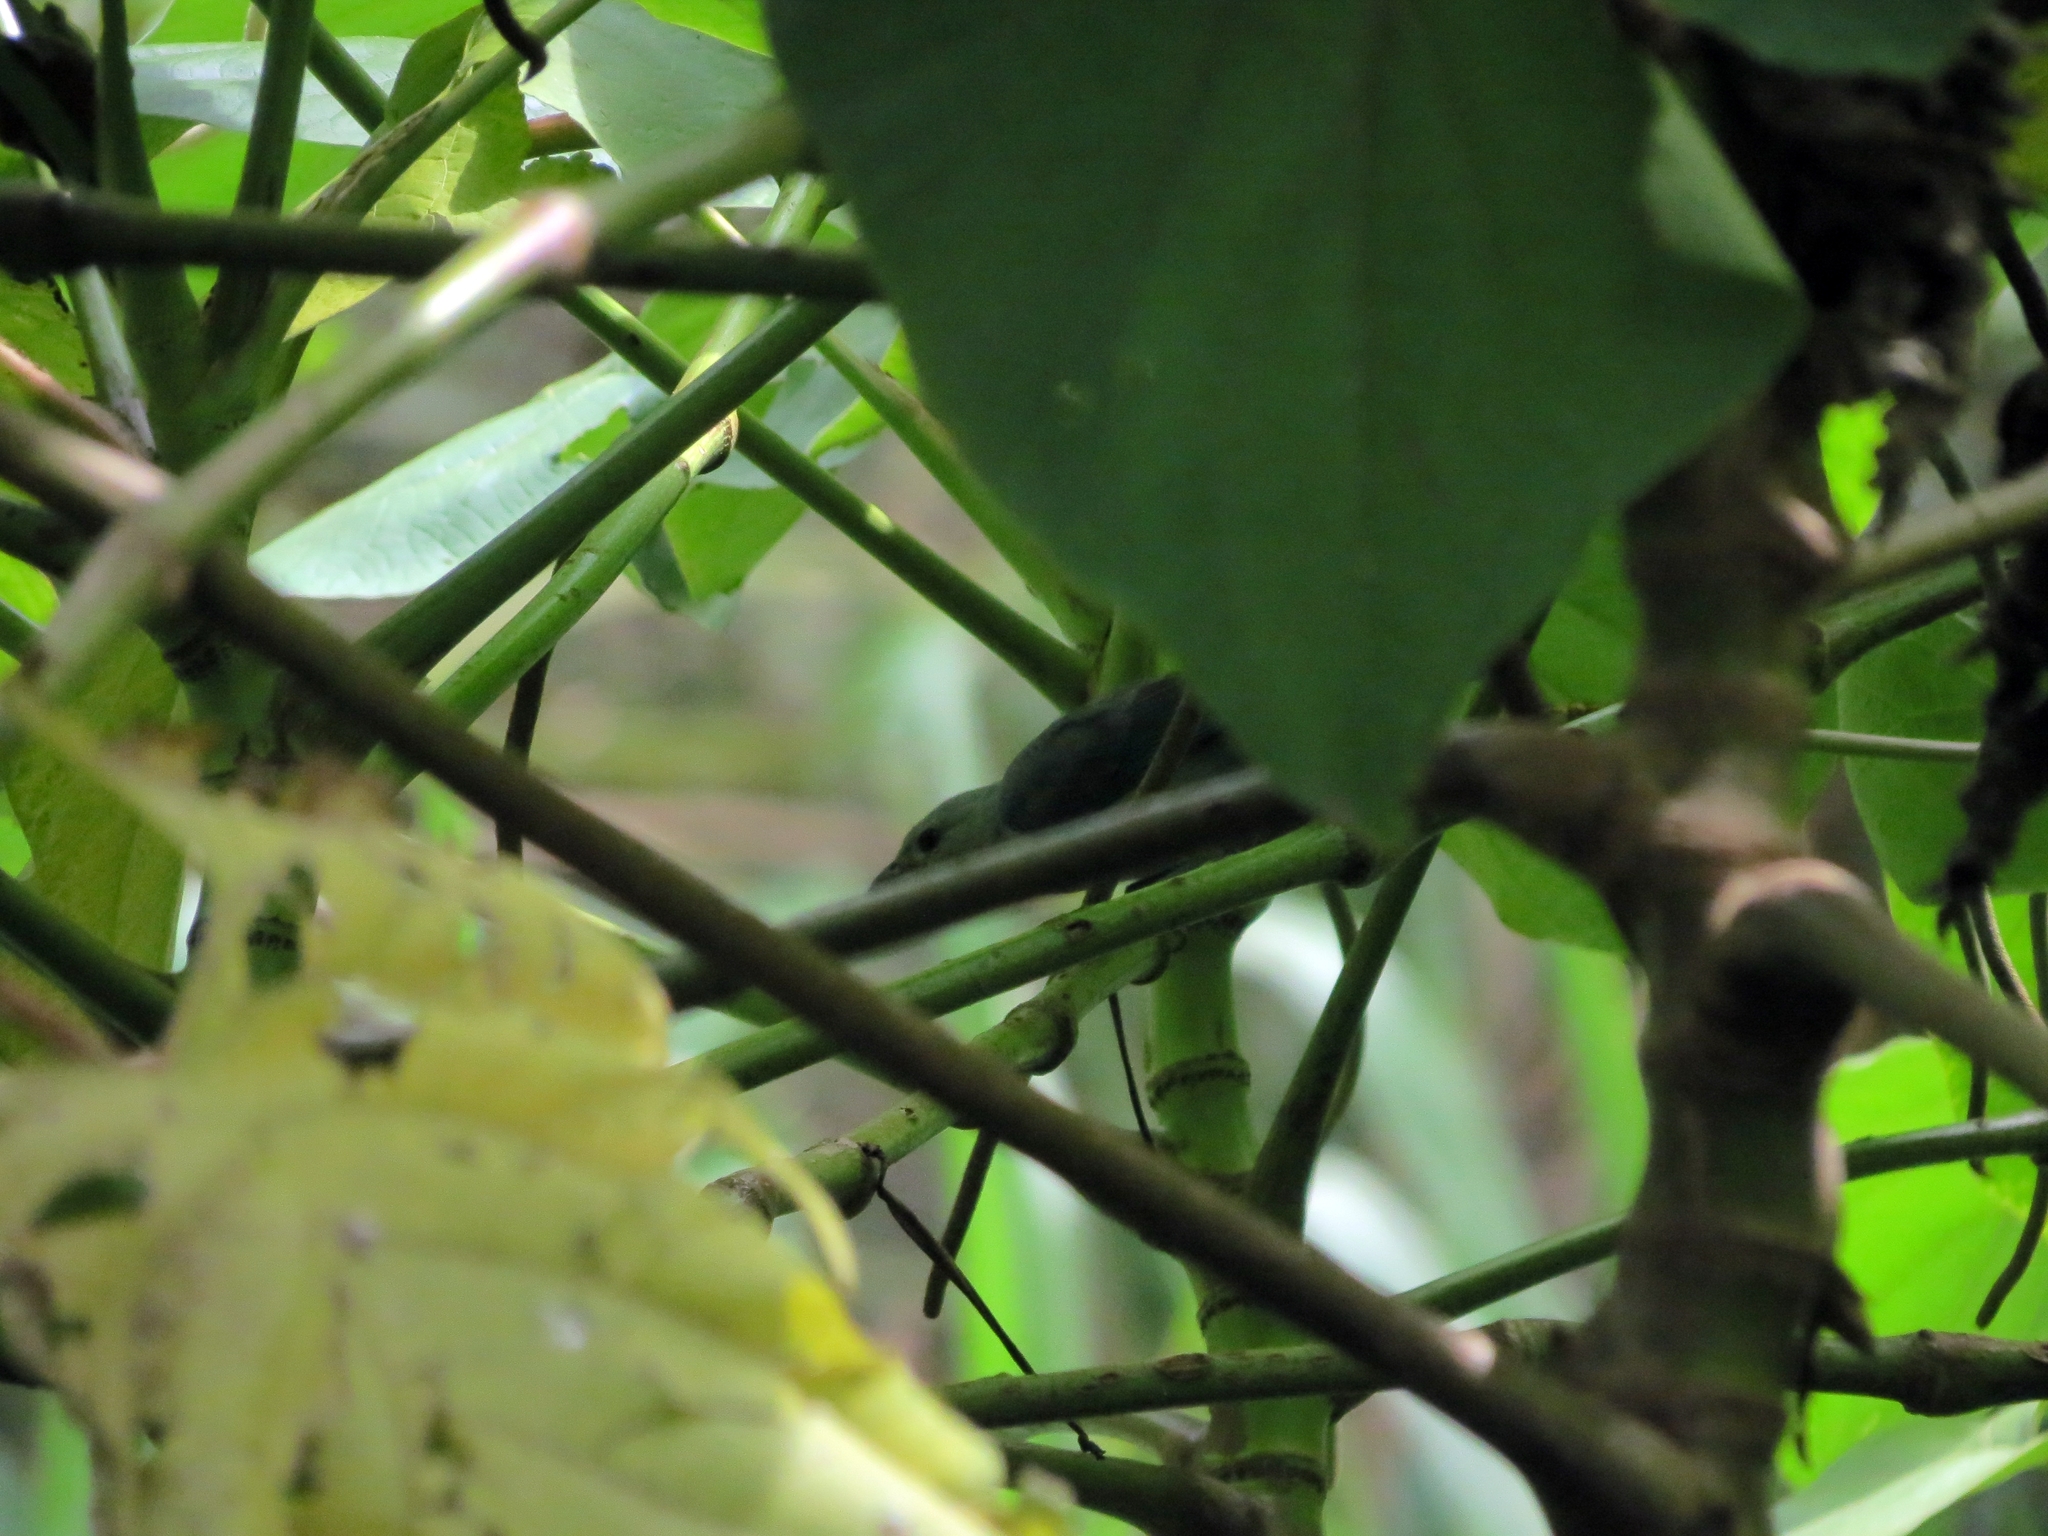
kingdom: Animalia
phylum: Chordata
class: Aves
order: Passeriformes
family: Thraupidae
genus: Thraupis
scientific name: Thraupis episcopus
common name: Blue-grey tanager
